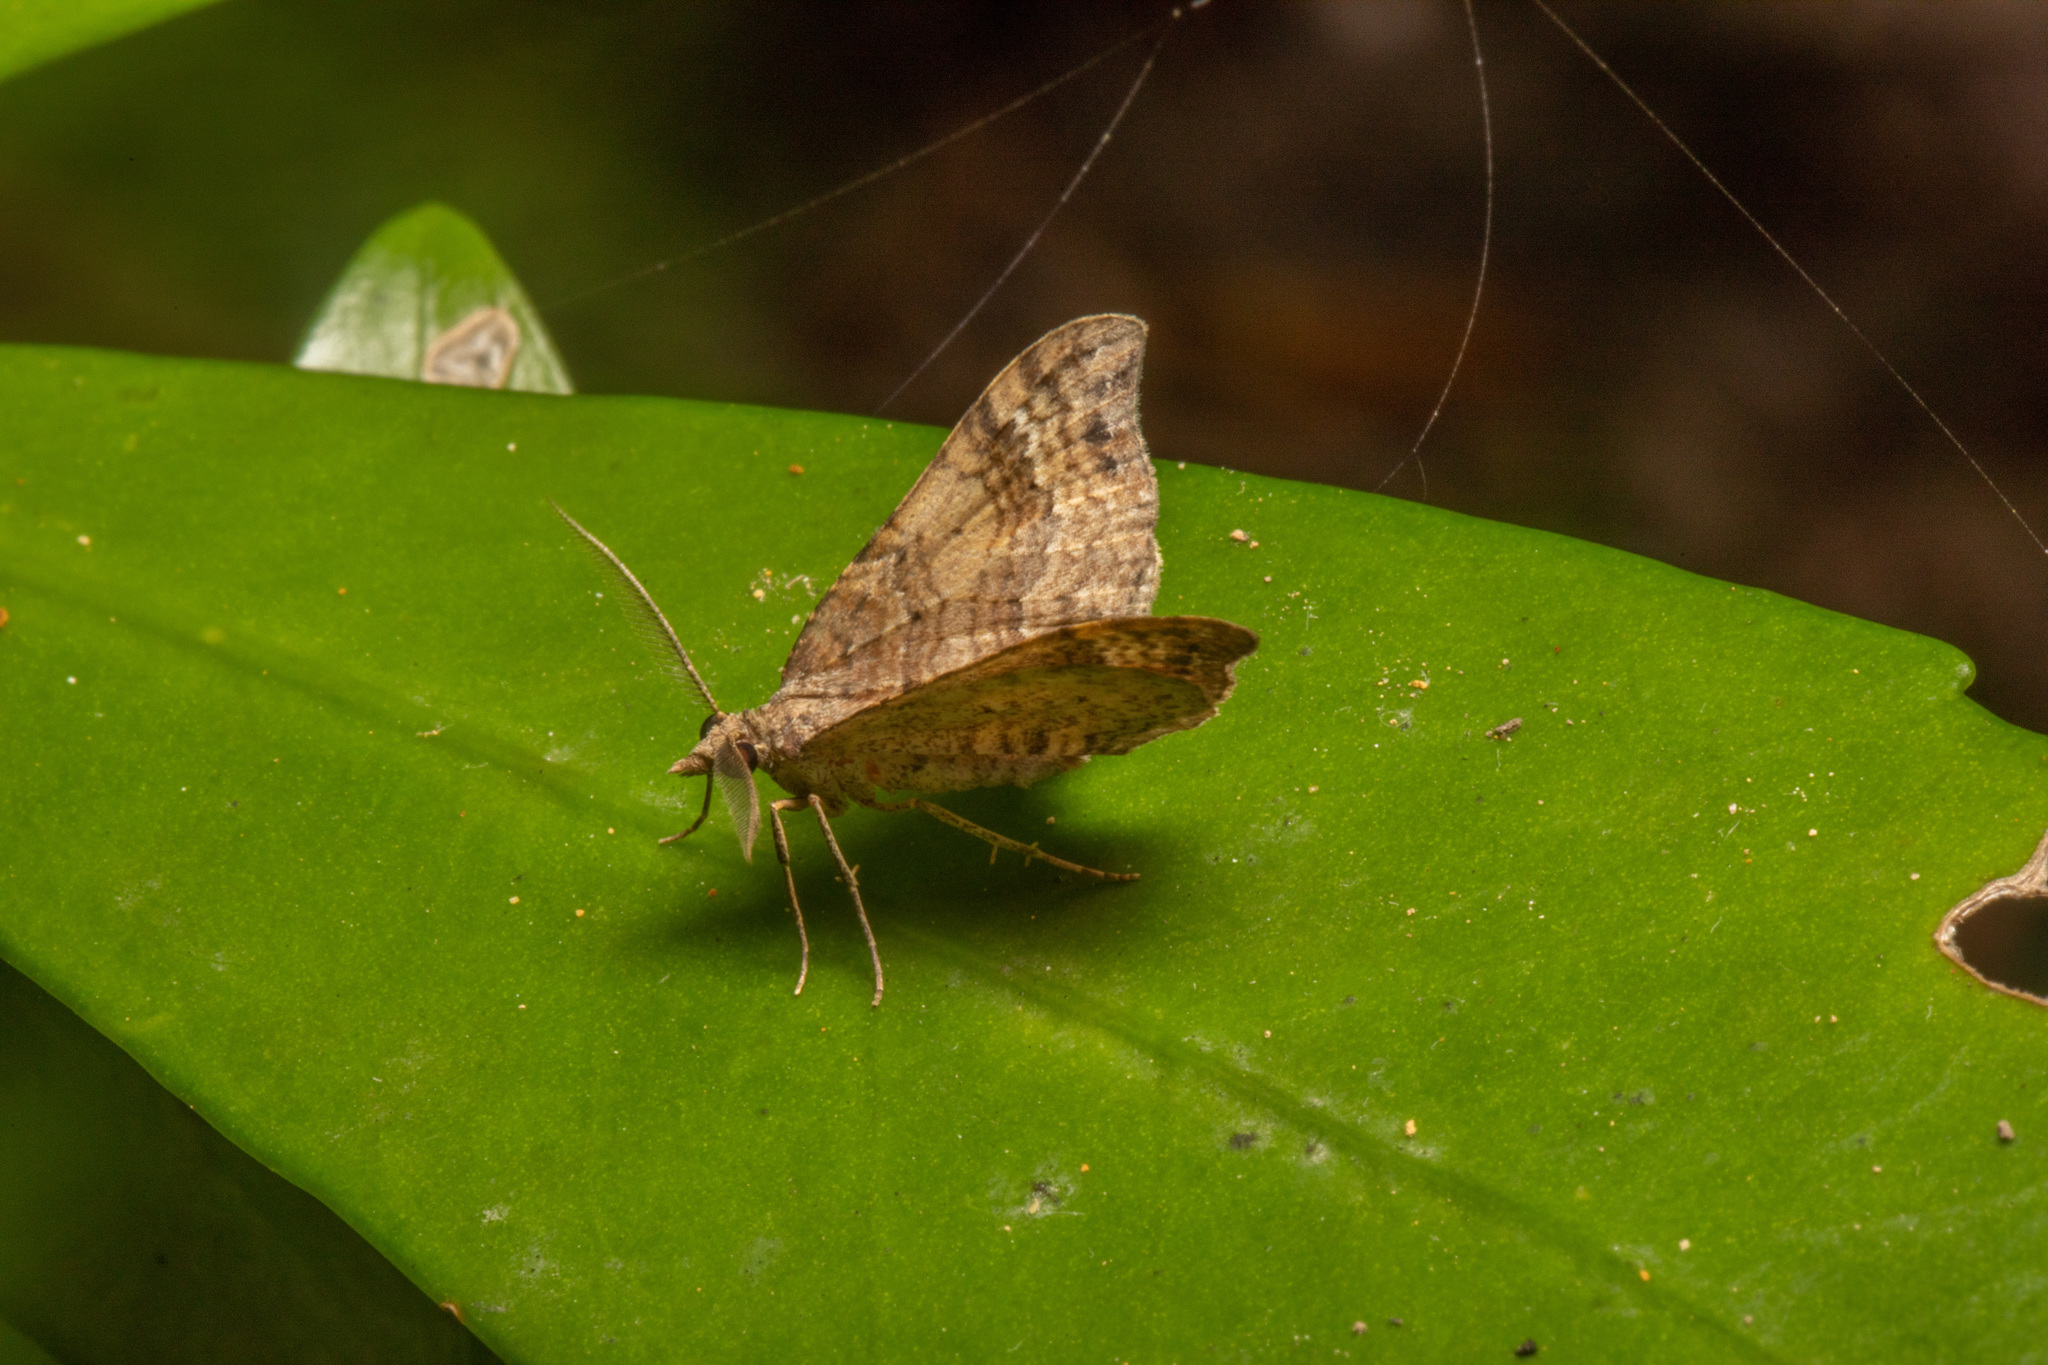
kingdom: Animalia
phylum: Arthropoda
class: Insecta
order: Lepidoptera
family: Geometridae
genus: Homodotis
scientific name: Homodotis megaspilata
